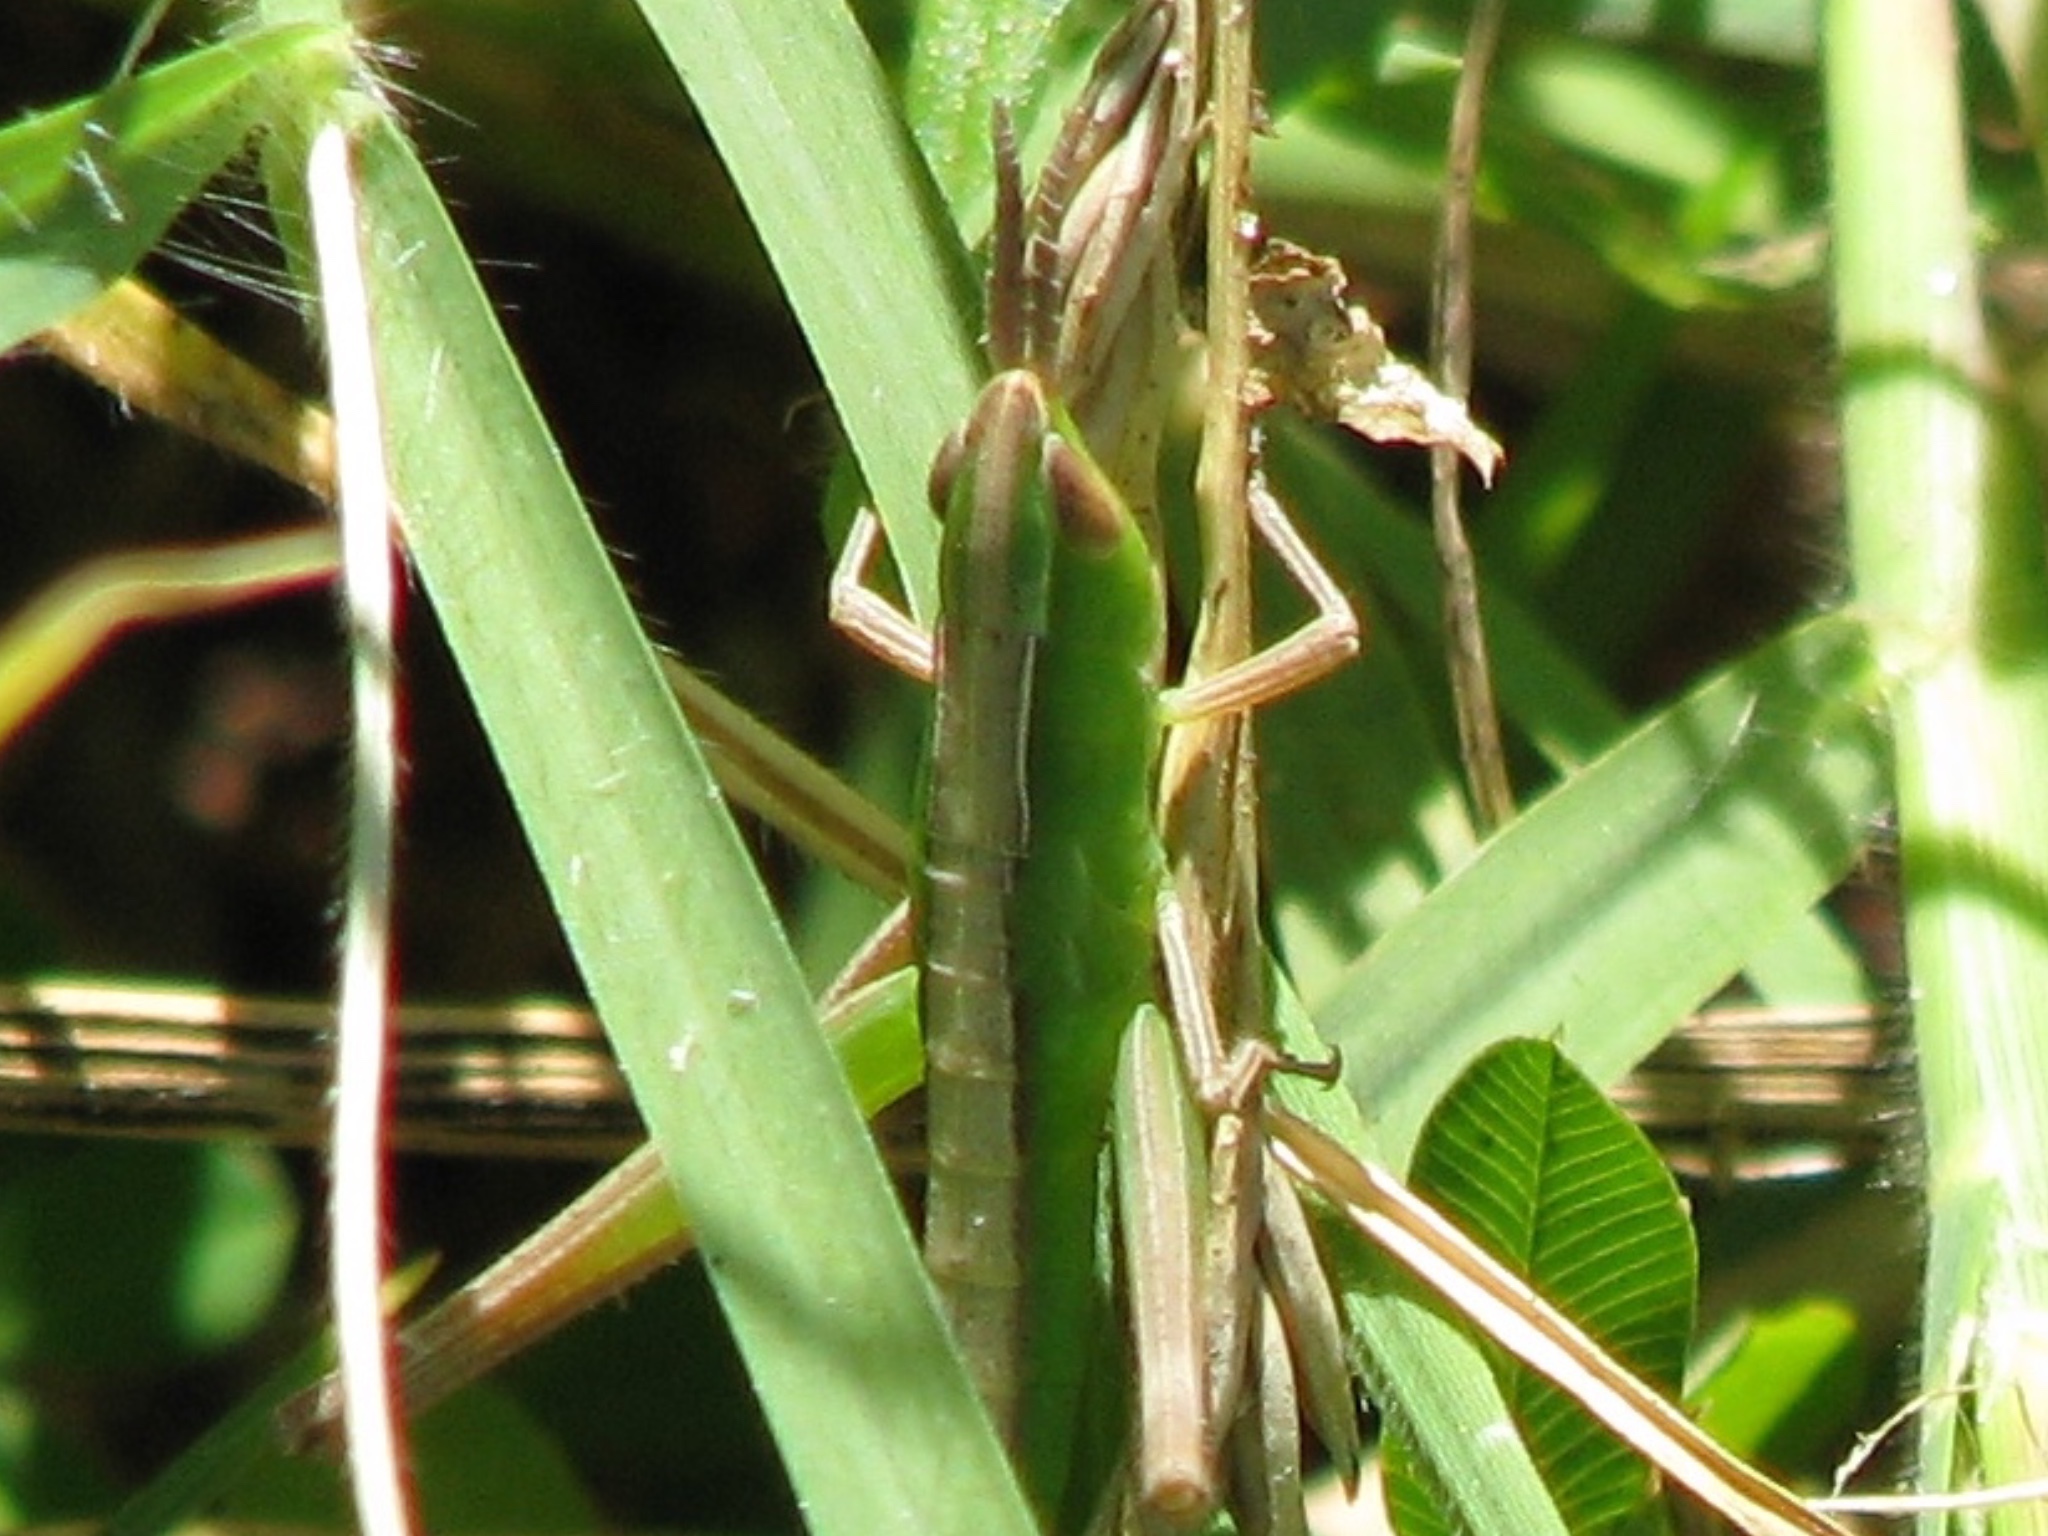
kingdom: Animalia
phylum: Arthropoda
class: Insecta
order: Orthoptera
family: Acrididae
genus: Syrbula
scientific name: Syrbula admirabilis
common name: Handsome grasshopper
